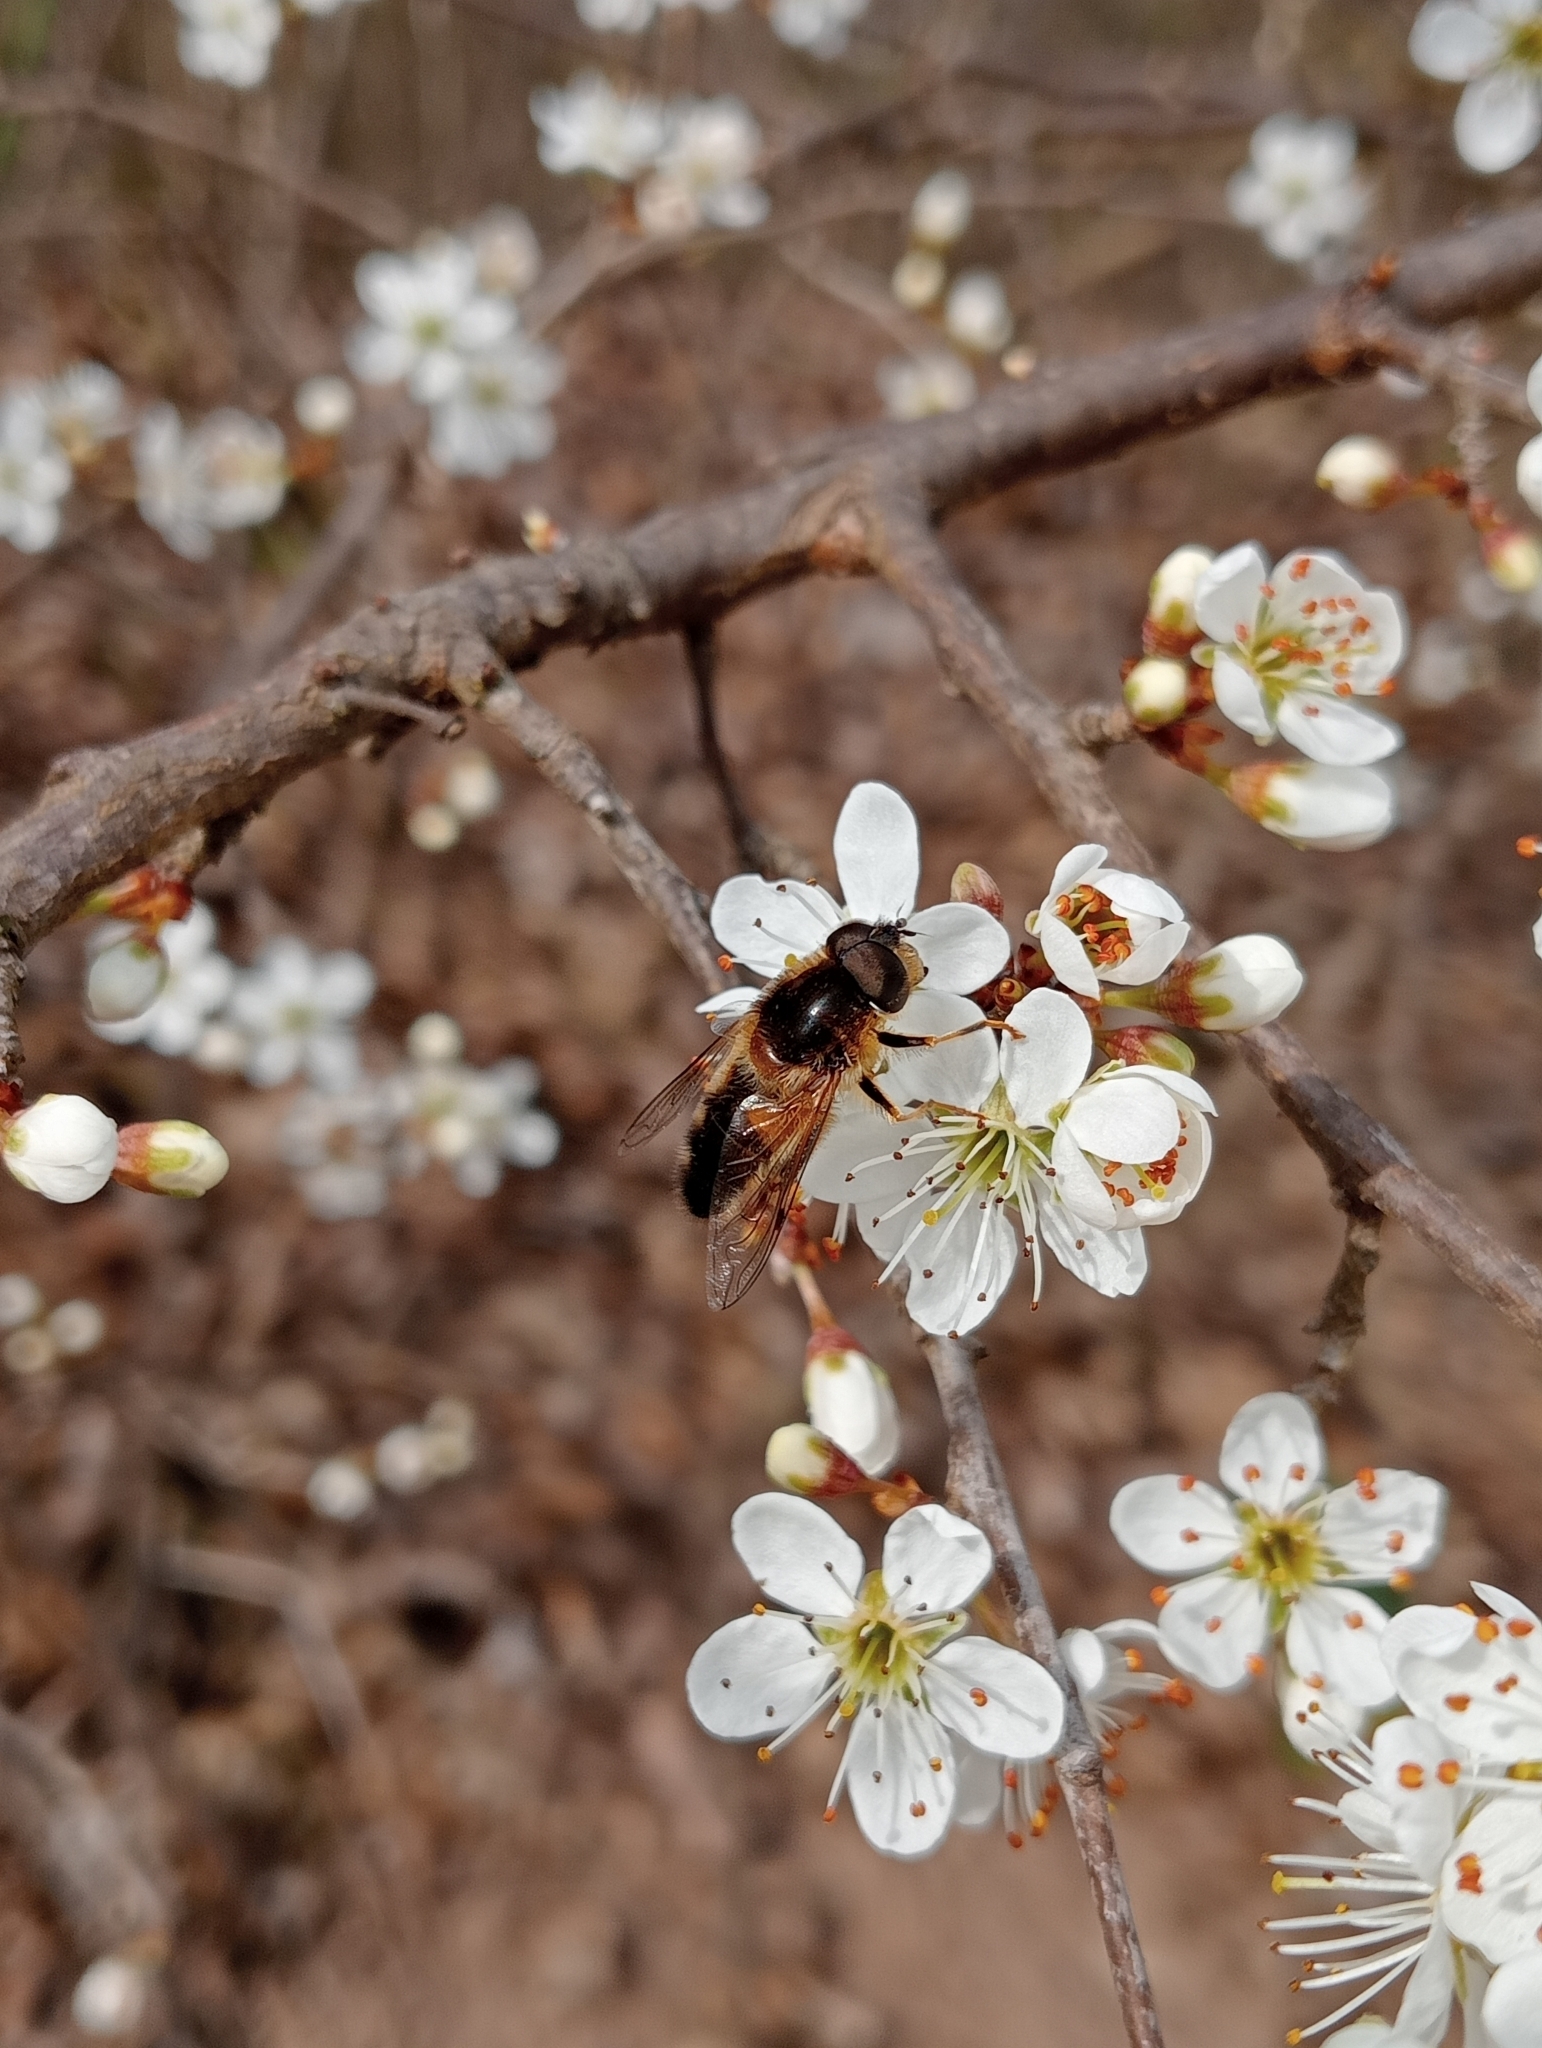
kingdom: Animalia
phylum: Arthropoda
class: Insecta
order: Diptera
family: Syrphidae
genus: Eristalis
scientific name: Eristalis pertinax
